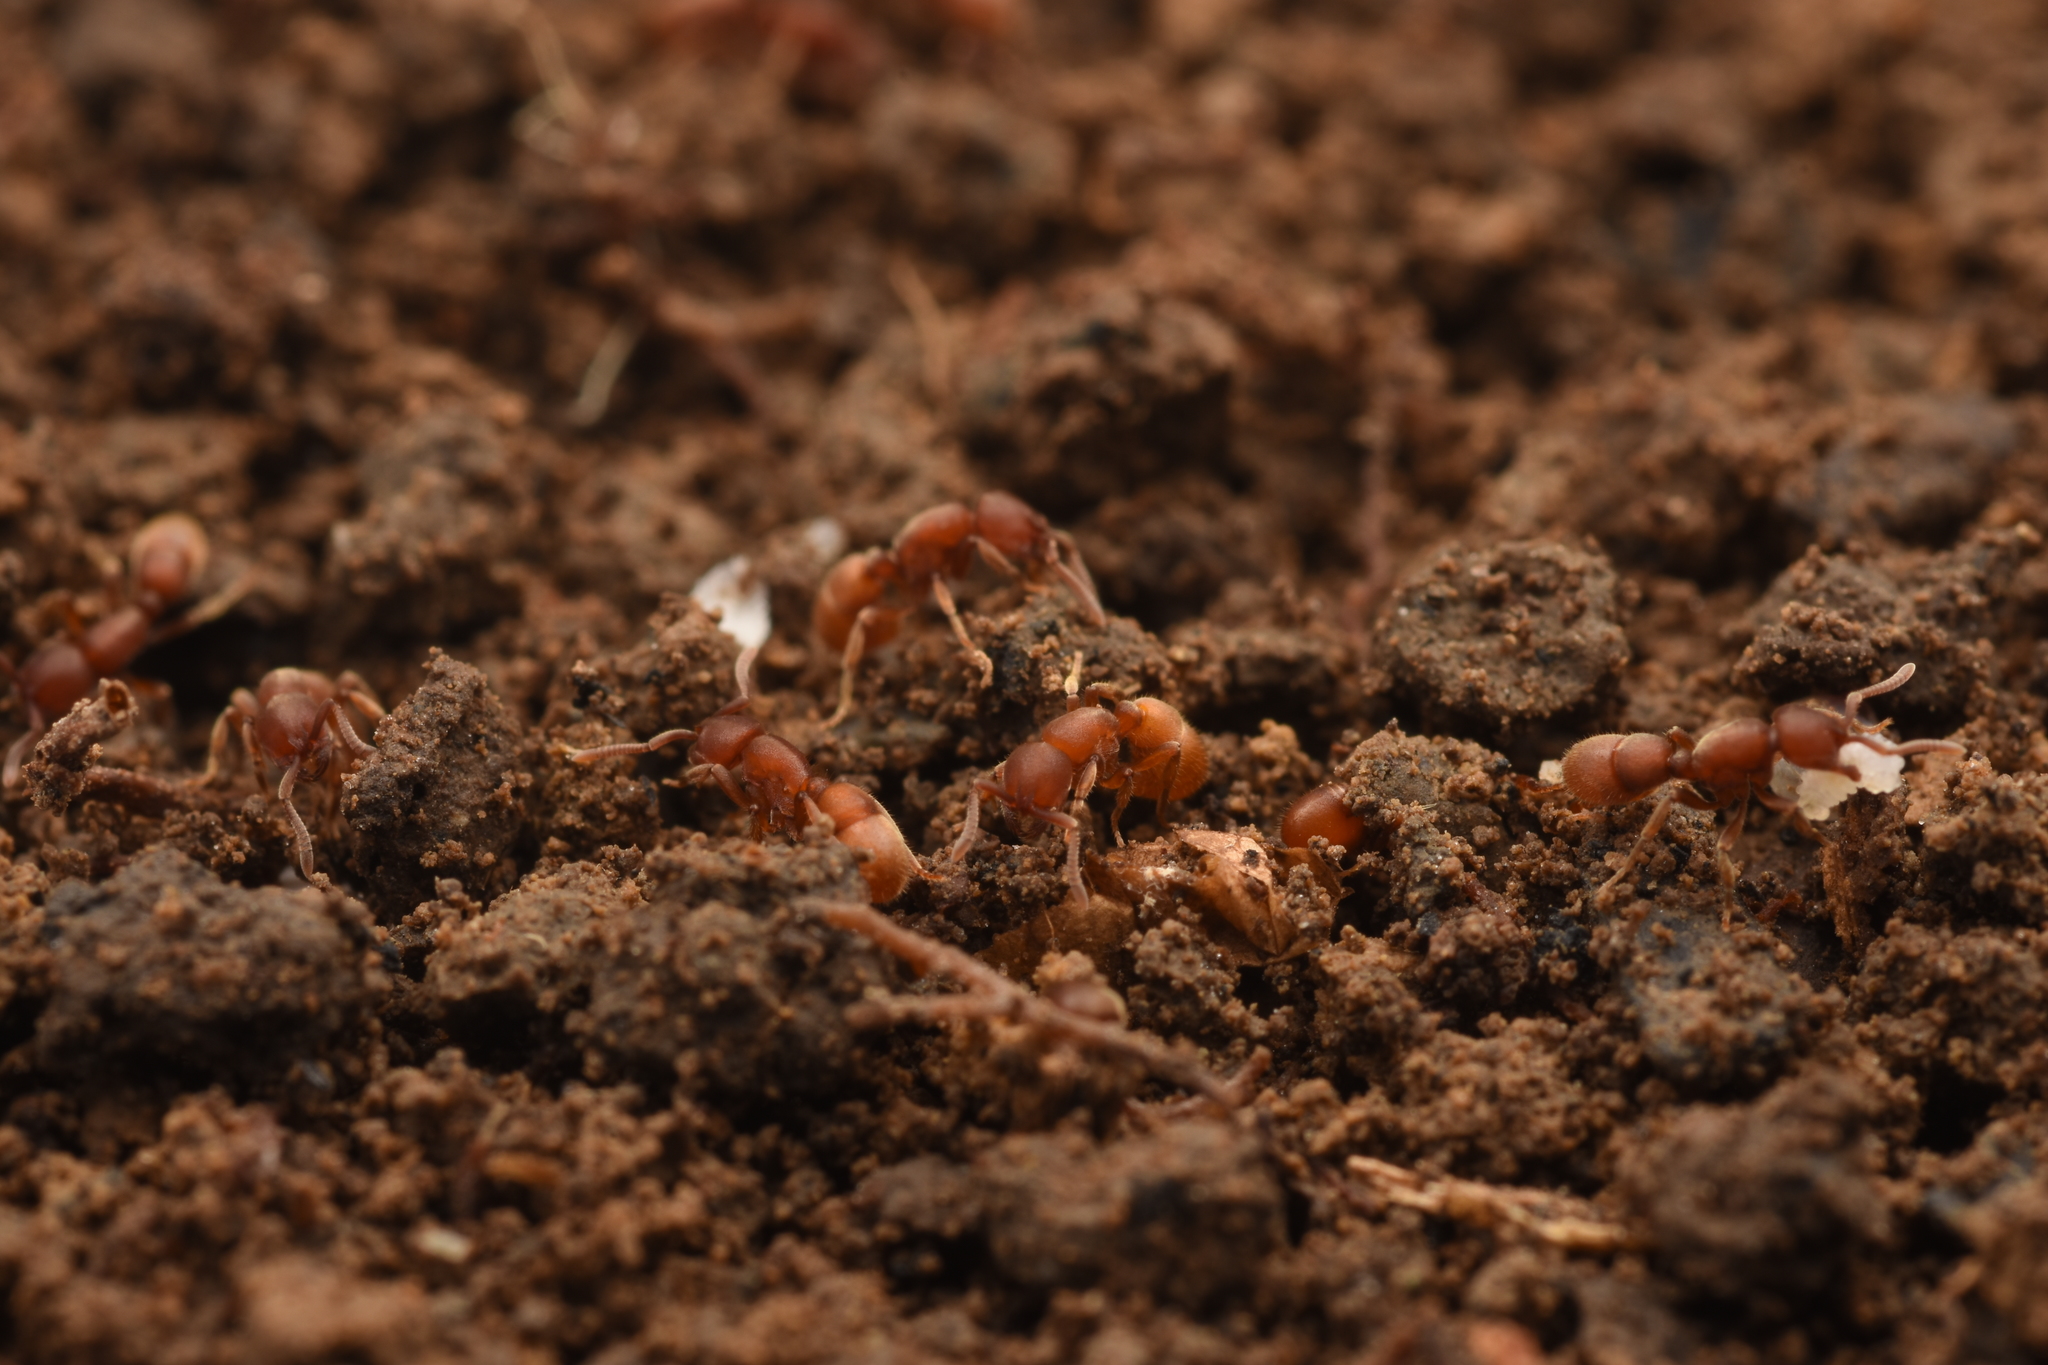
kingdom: Animalia
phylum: Arthropoda
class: Insecta
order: Hymenoptera
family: Formicidae
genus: Proceratium
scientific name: Proceratium itoi
